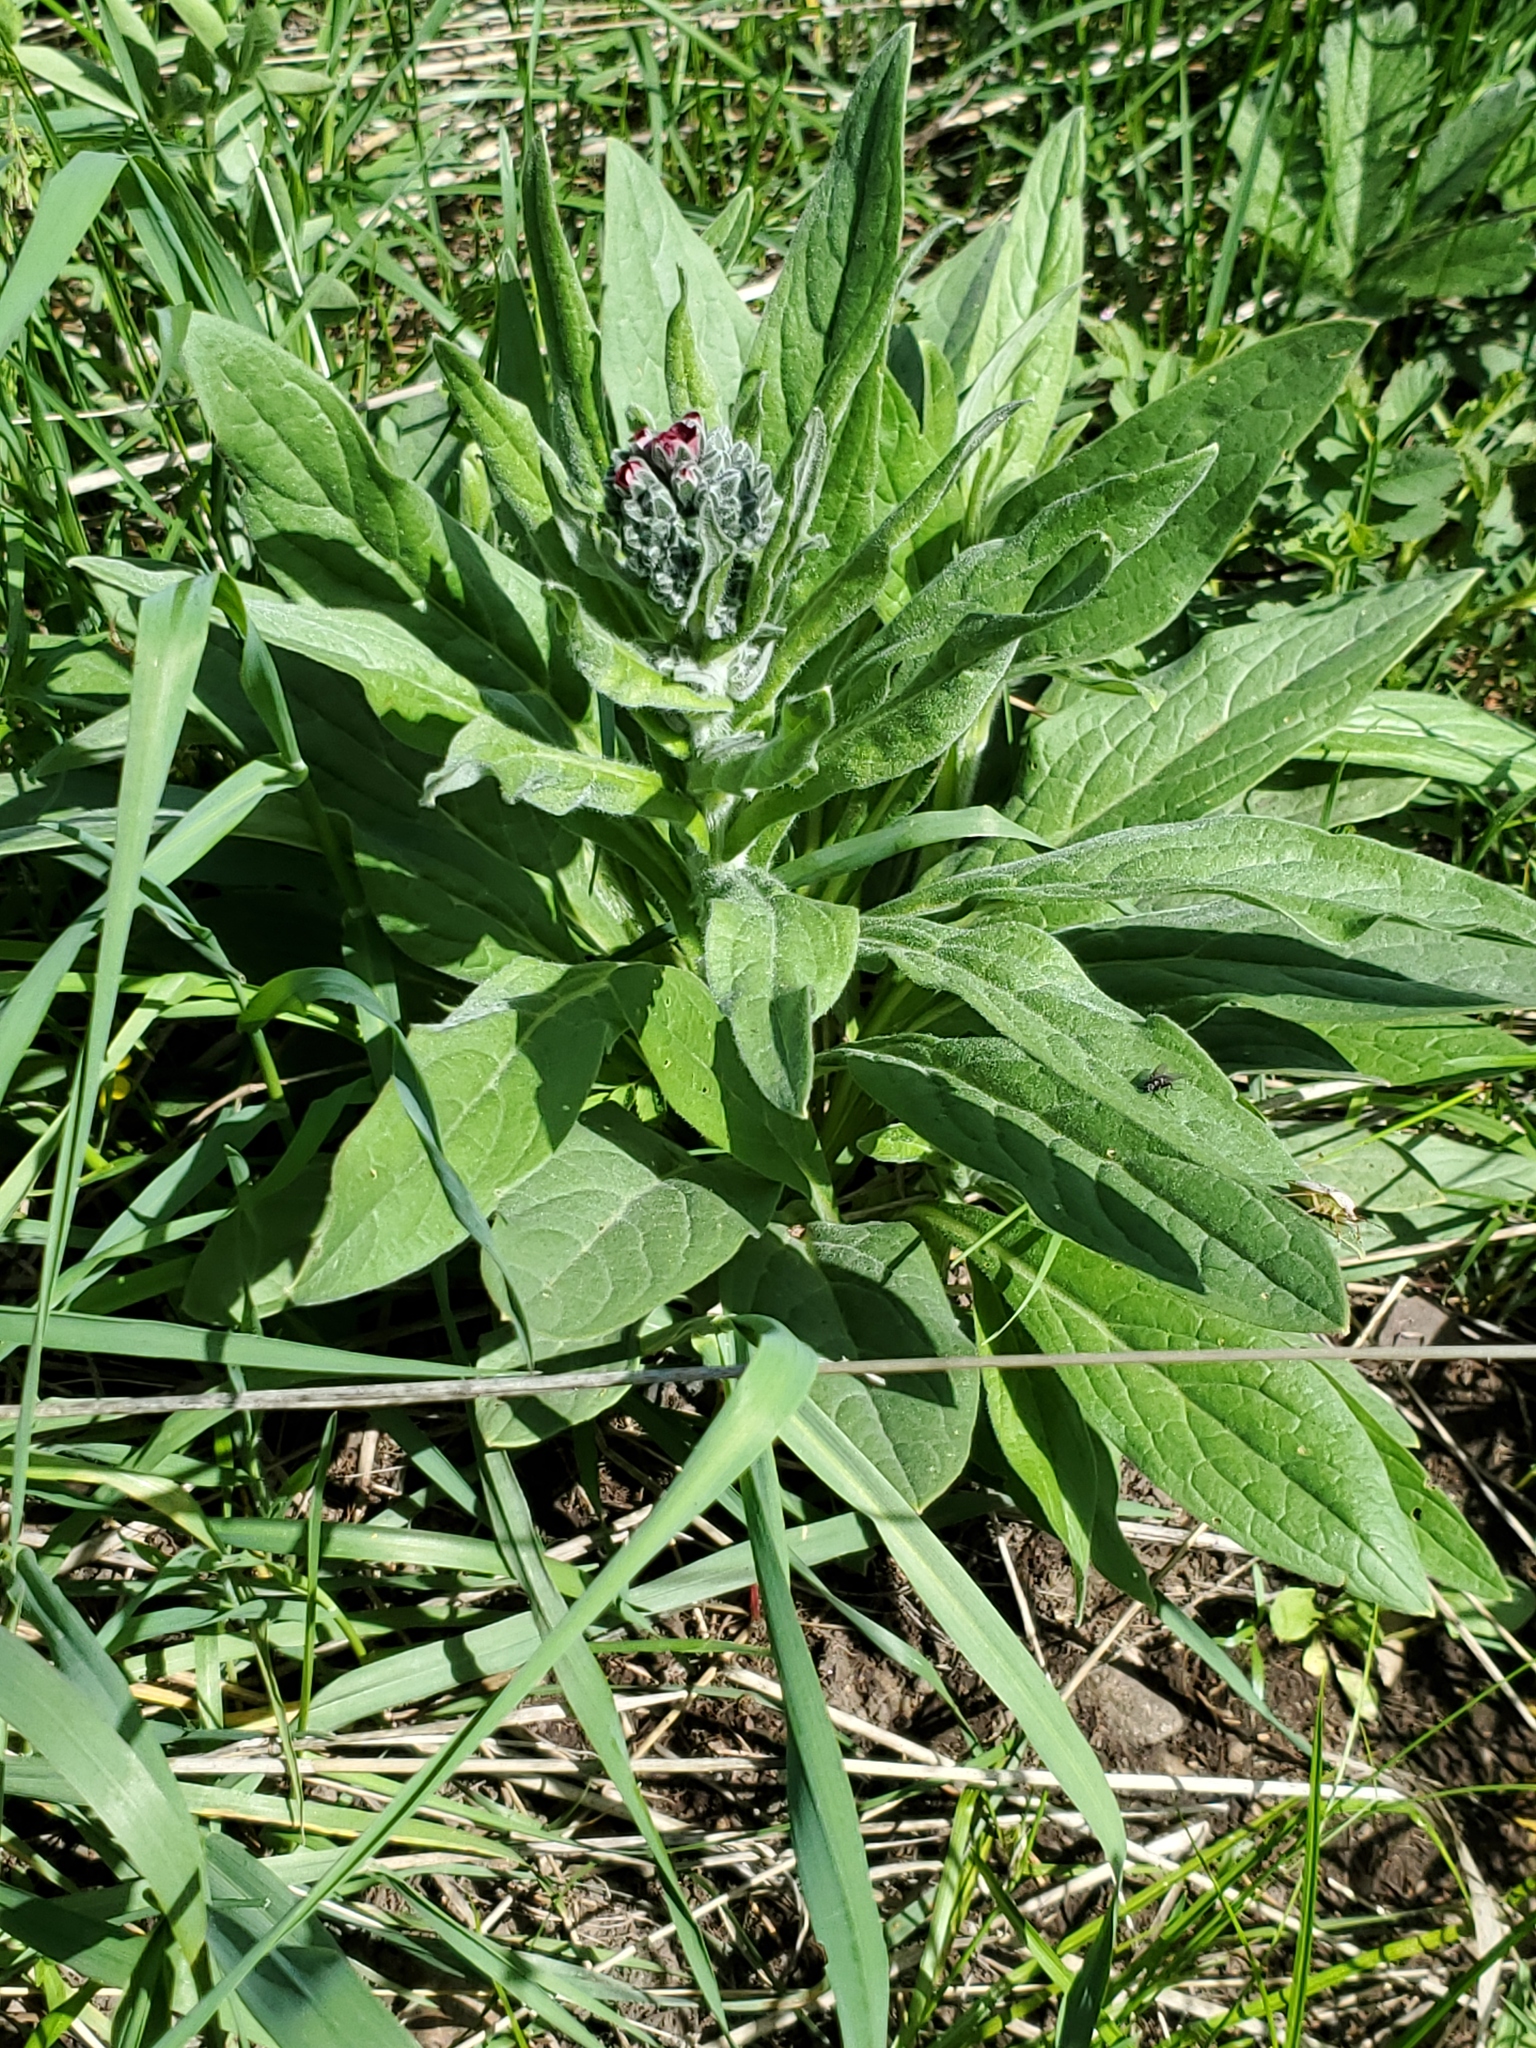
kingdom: Plantae
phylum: Tracheophyta
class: Magnoliopsida
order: Boraginales
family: Boraginaceae
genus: Cynoglossum
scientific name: Cynoglossum officinale
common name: Hound's-tongue
